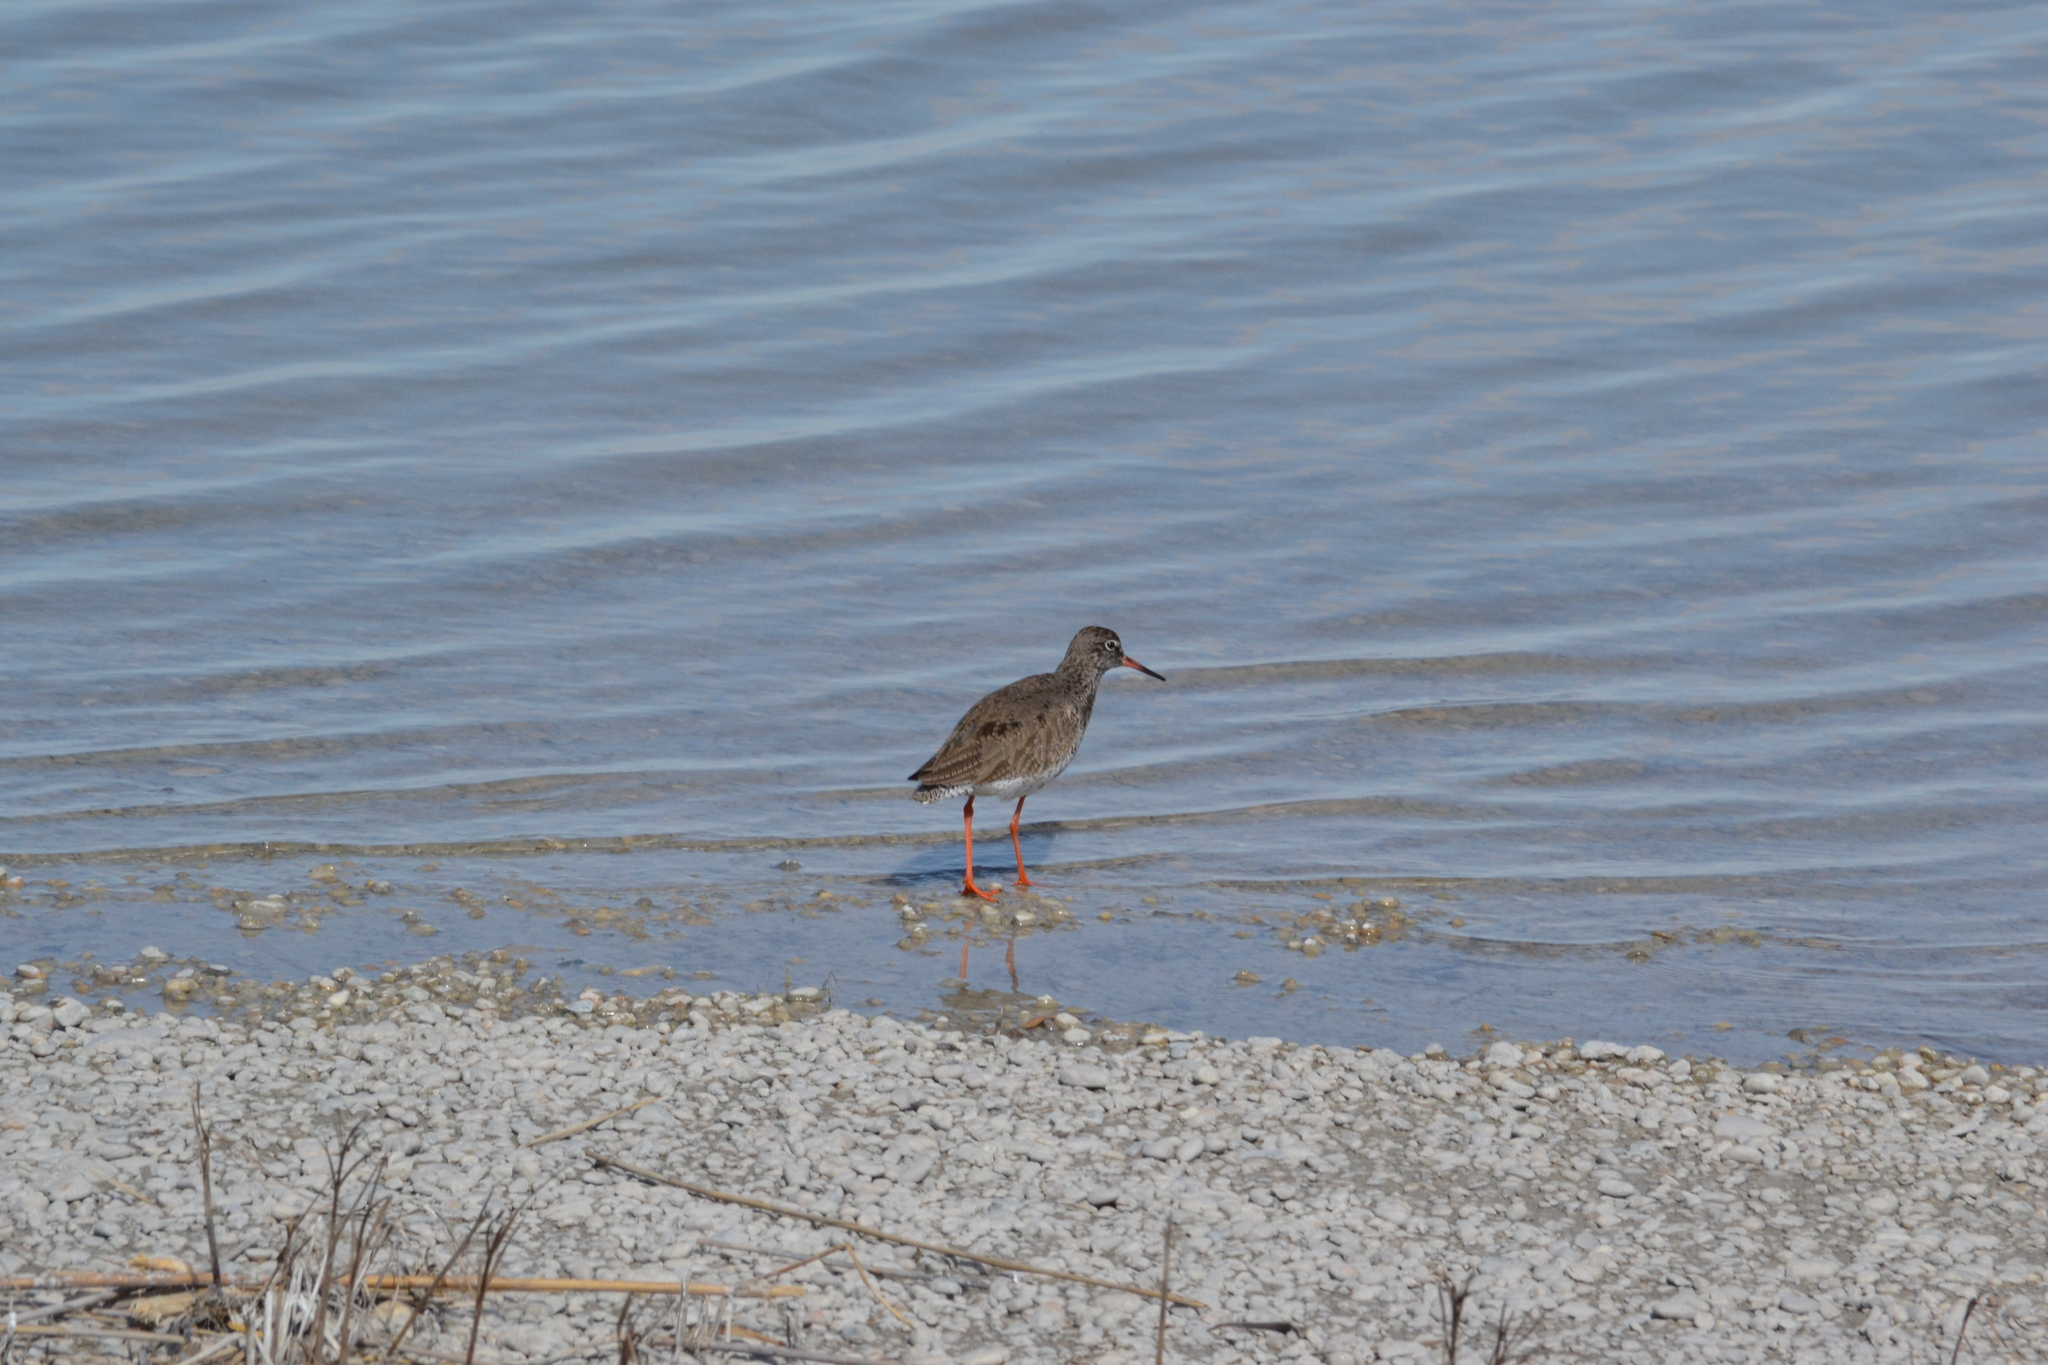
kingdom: Animalia
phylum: Chordata
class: Aves
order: Charadriiformes
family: Scolopacidae
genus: Tringa
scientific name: Tringa totanus
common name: Common redshank
